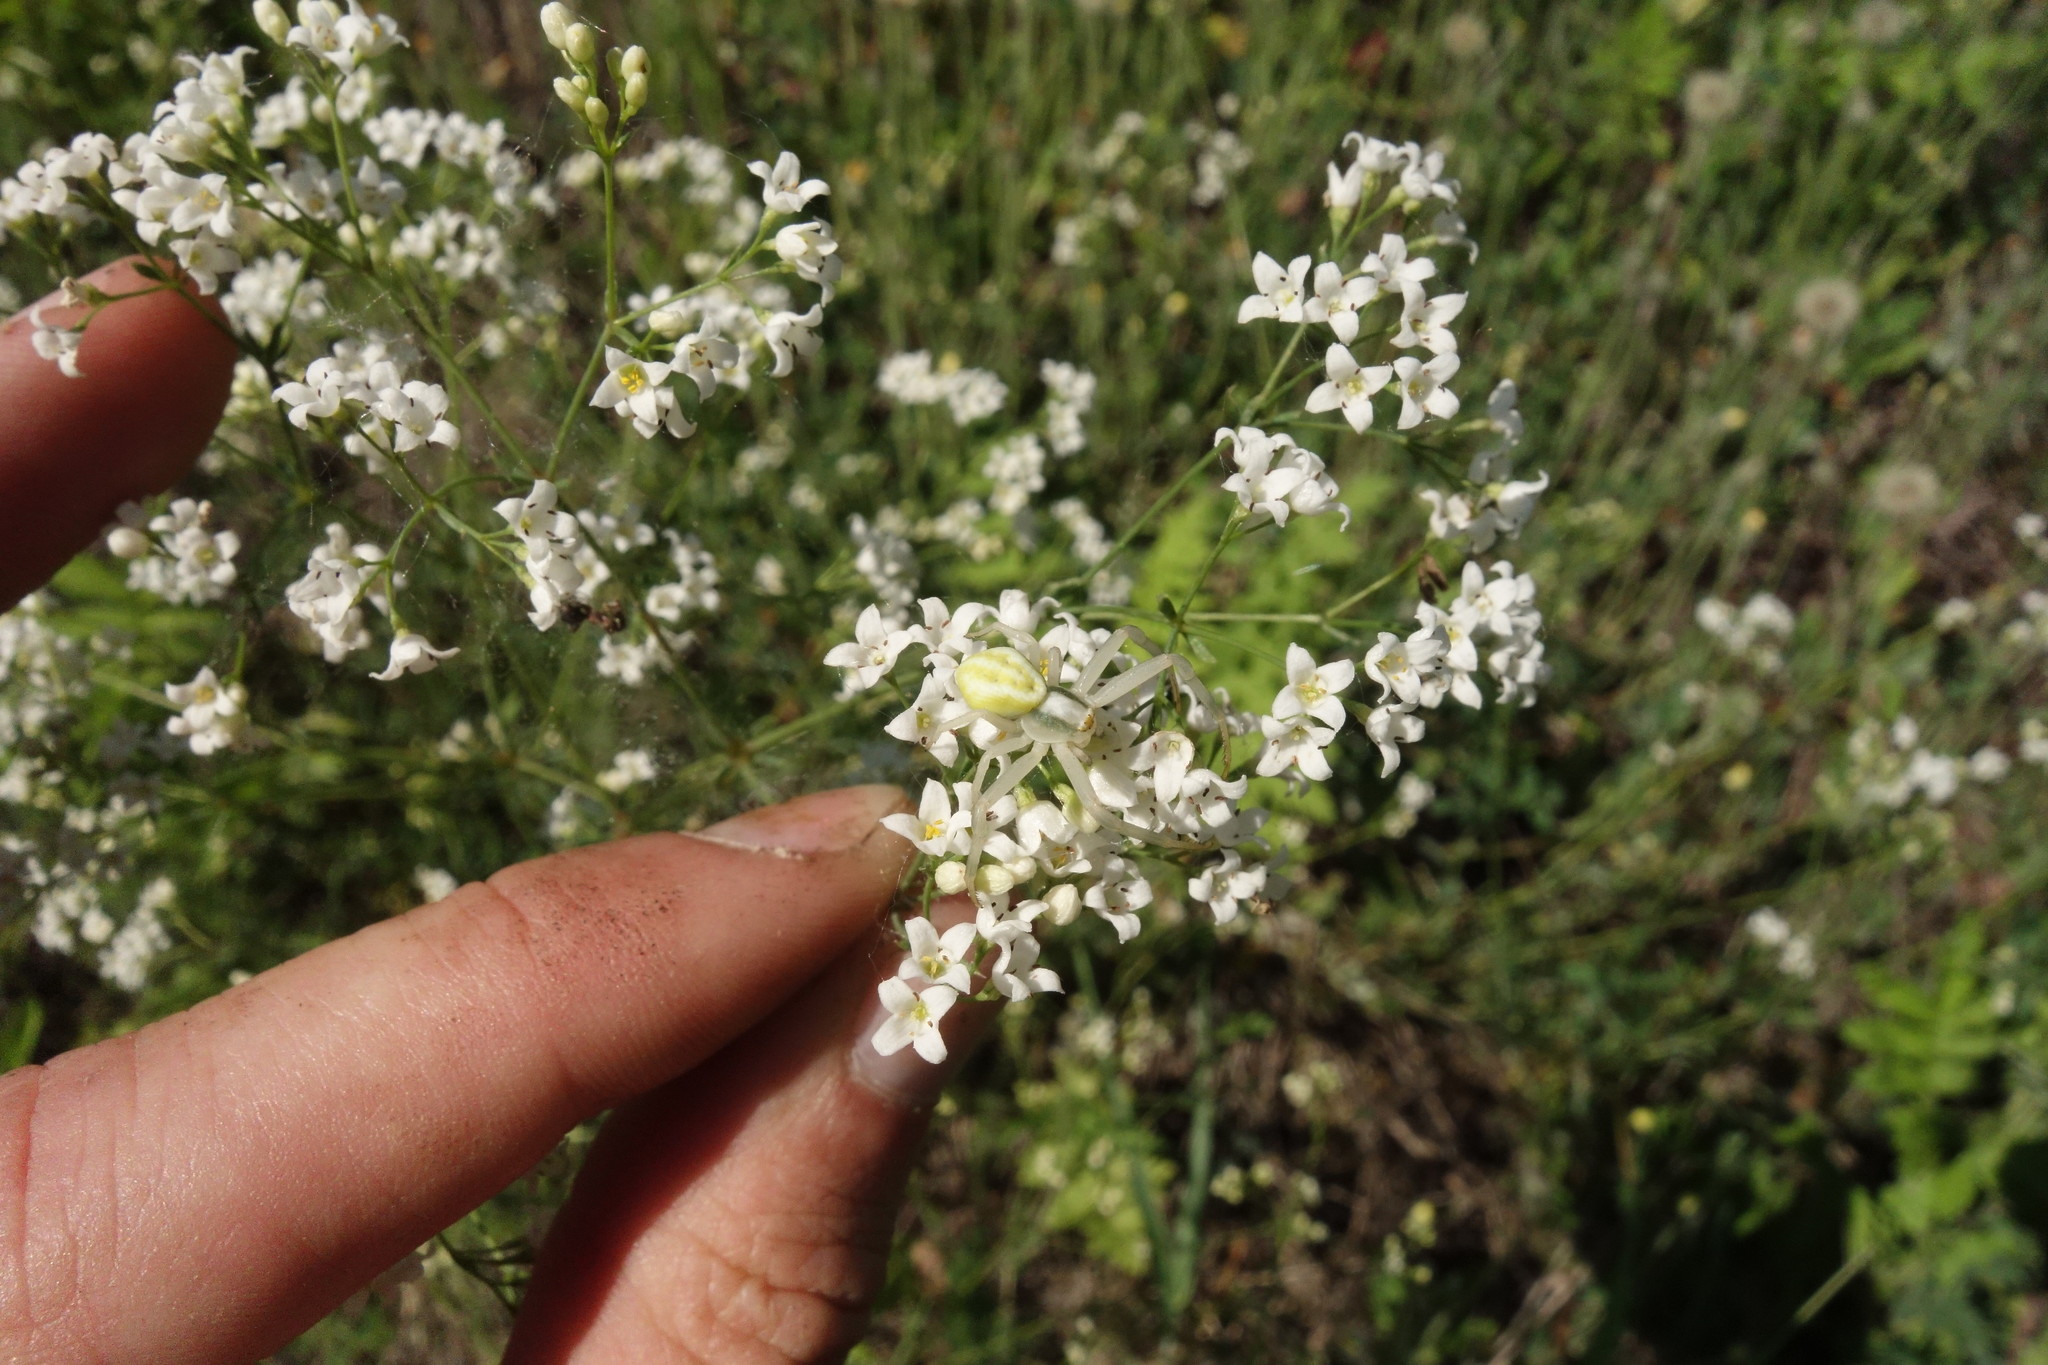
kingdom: Animalia
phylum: Arthropoda
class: Arachnida
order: Araneae
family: Thomisidae
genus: Misumena
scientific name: Misumena vatia
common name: Goldenrod crab spider
